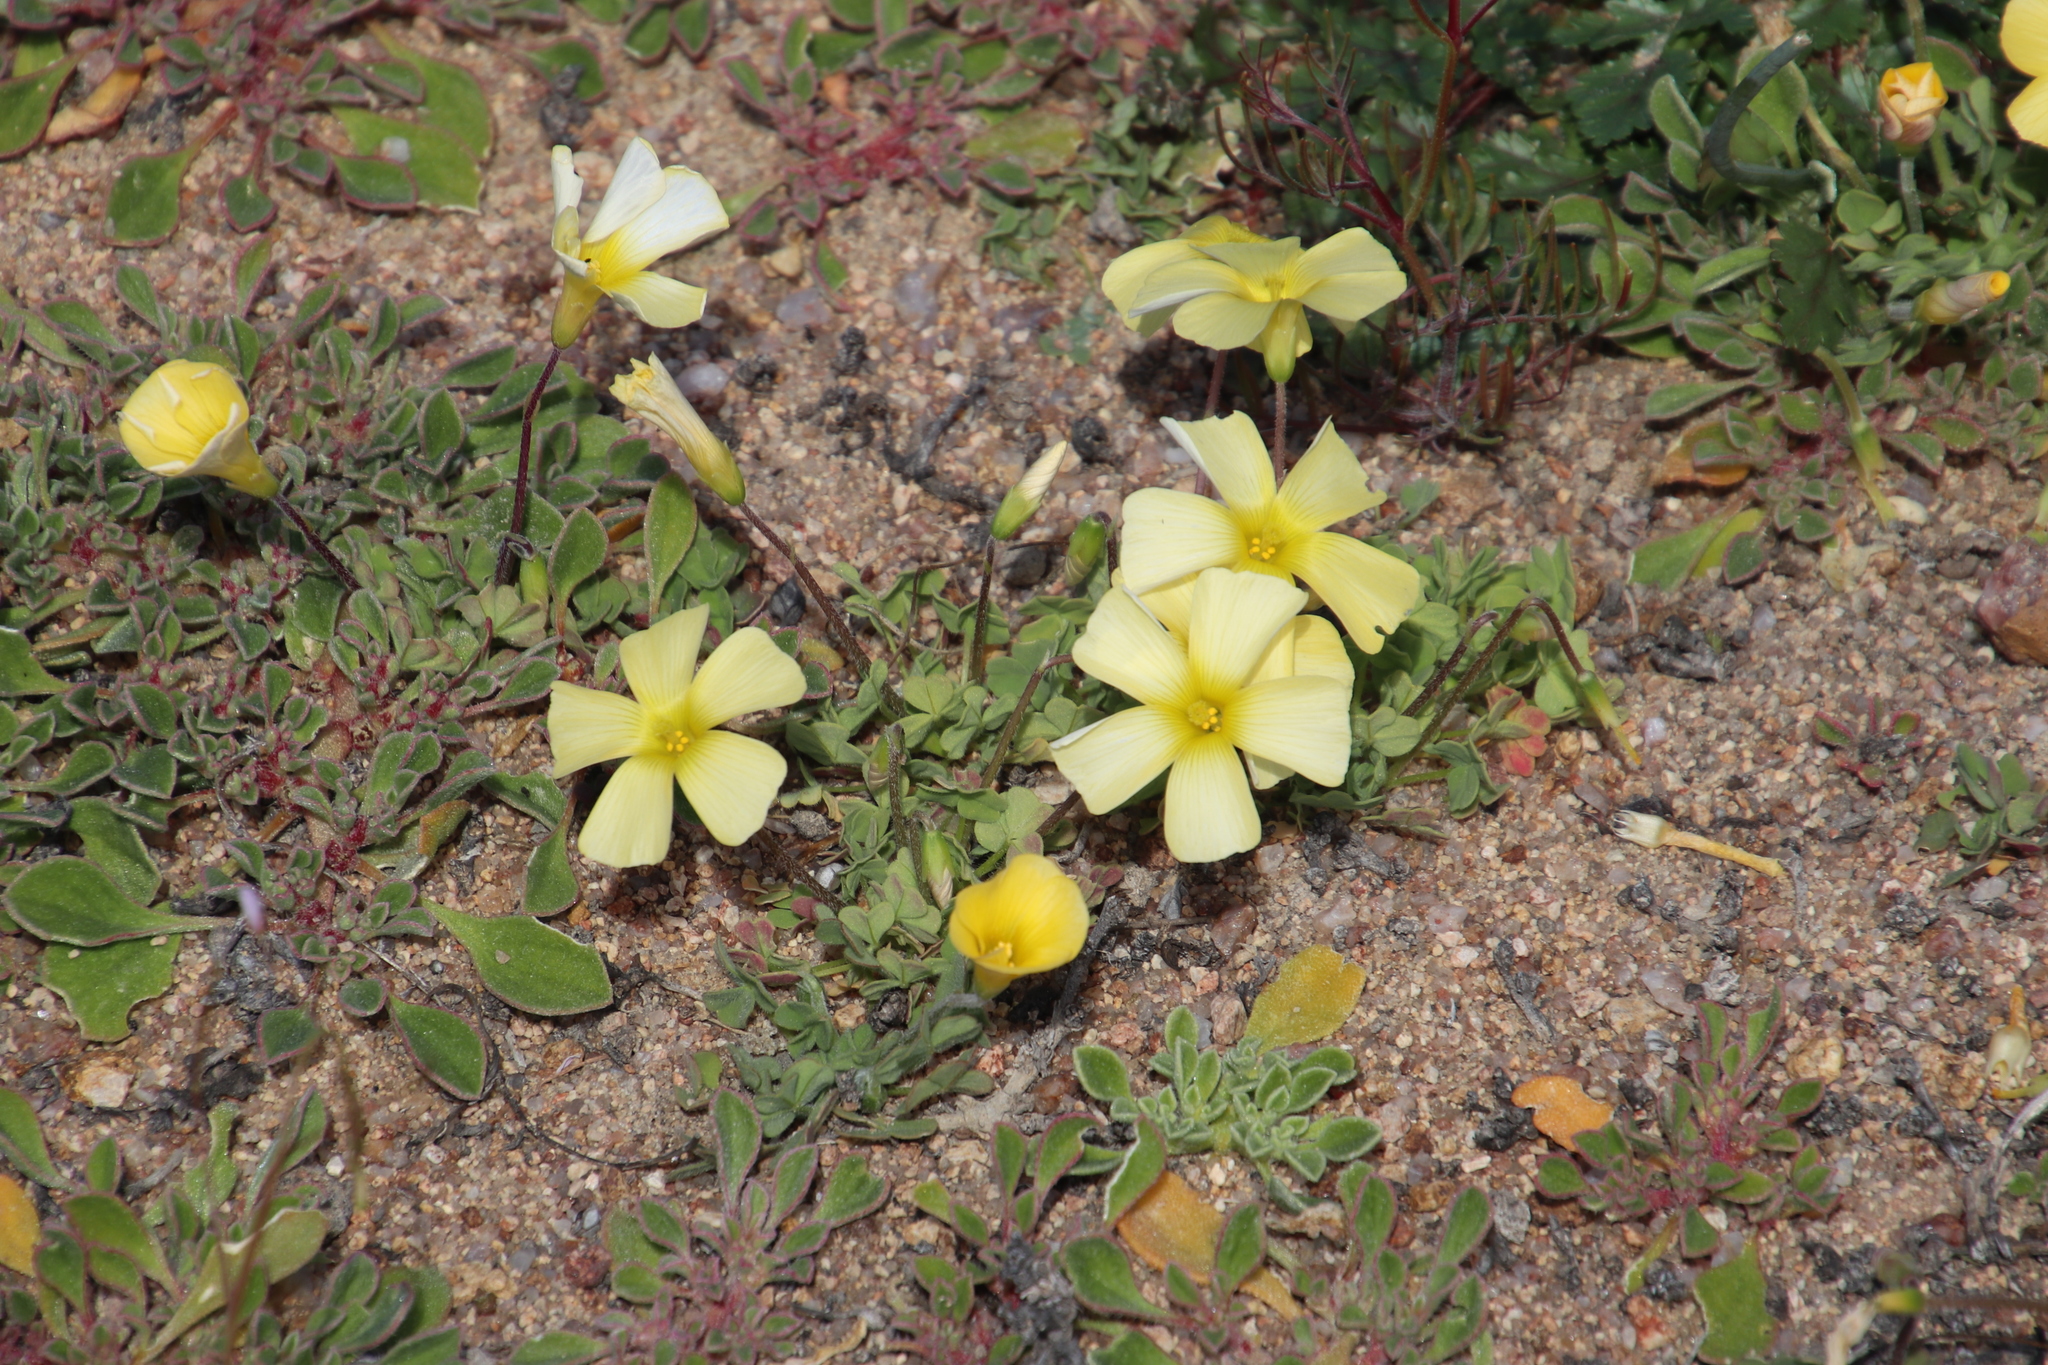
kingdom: Plantae
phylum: Tracheophyta
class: Magnoliopsida
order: Oxalidales
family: Oxalidaceae
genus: Oxalis
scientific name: Oxalis obtusa
